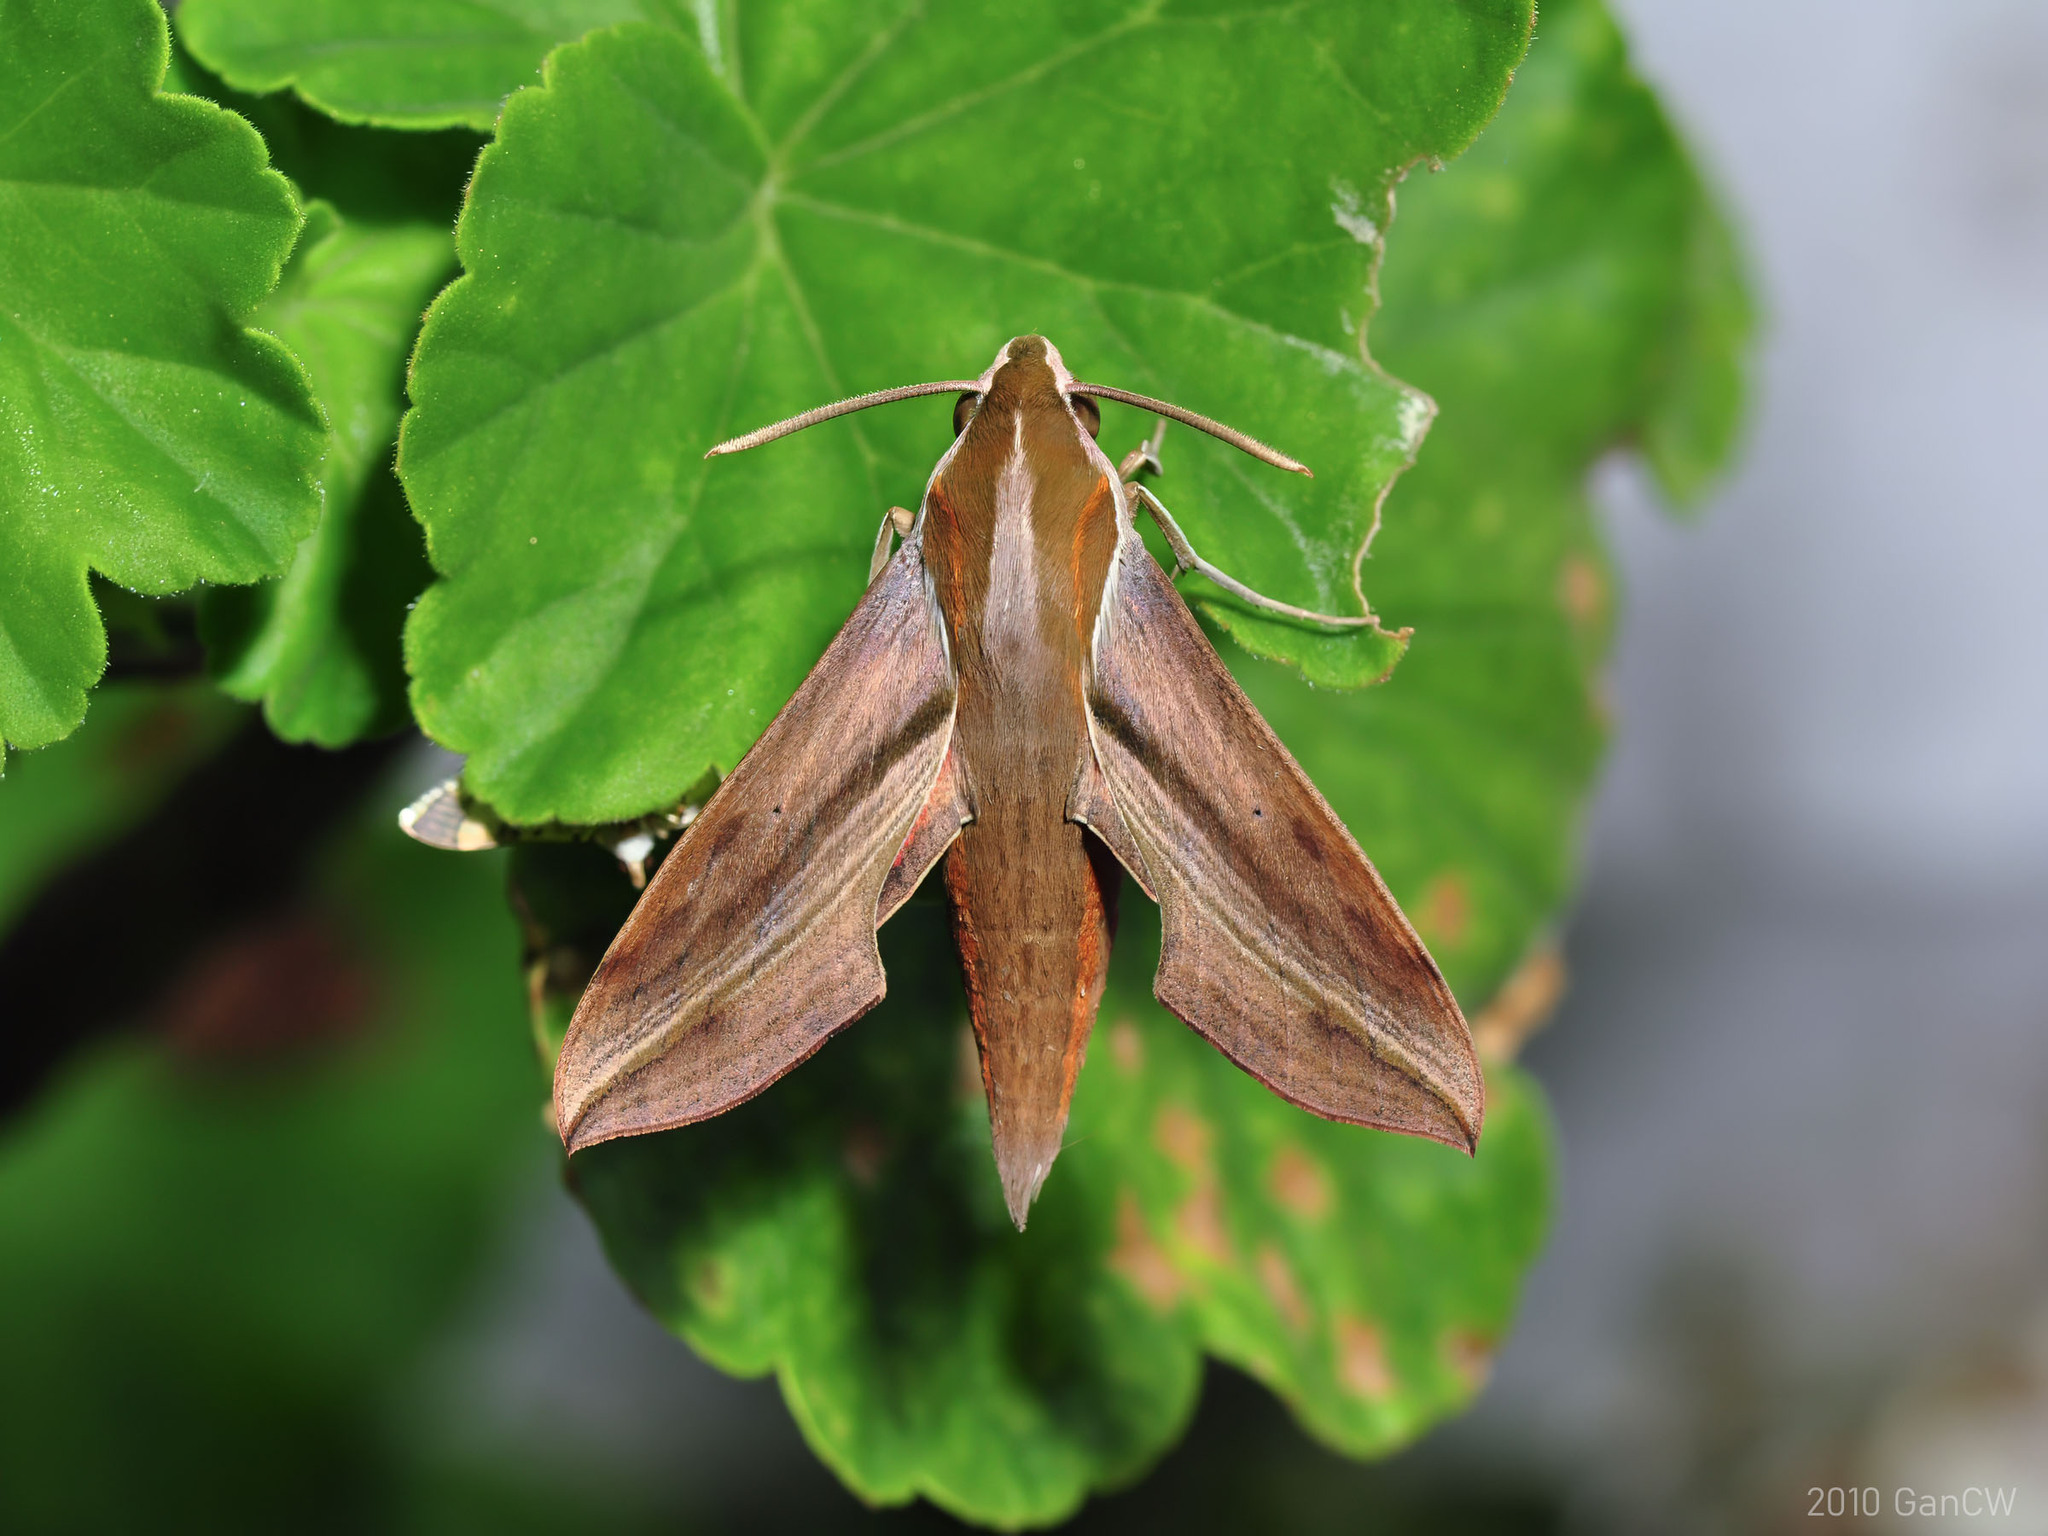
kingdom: Animalia
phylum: Arthropoda
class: Insecta
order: Lepidoptera
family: Sphingidae
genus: Hippotion
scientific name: Hippotion echeclus
